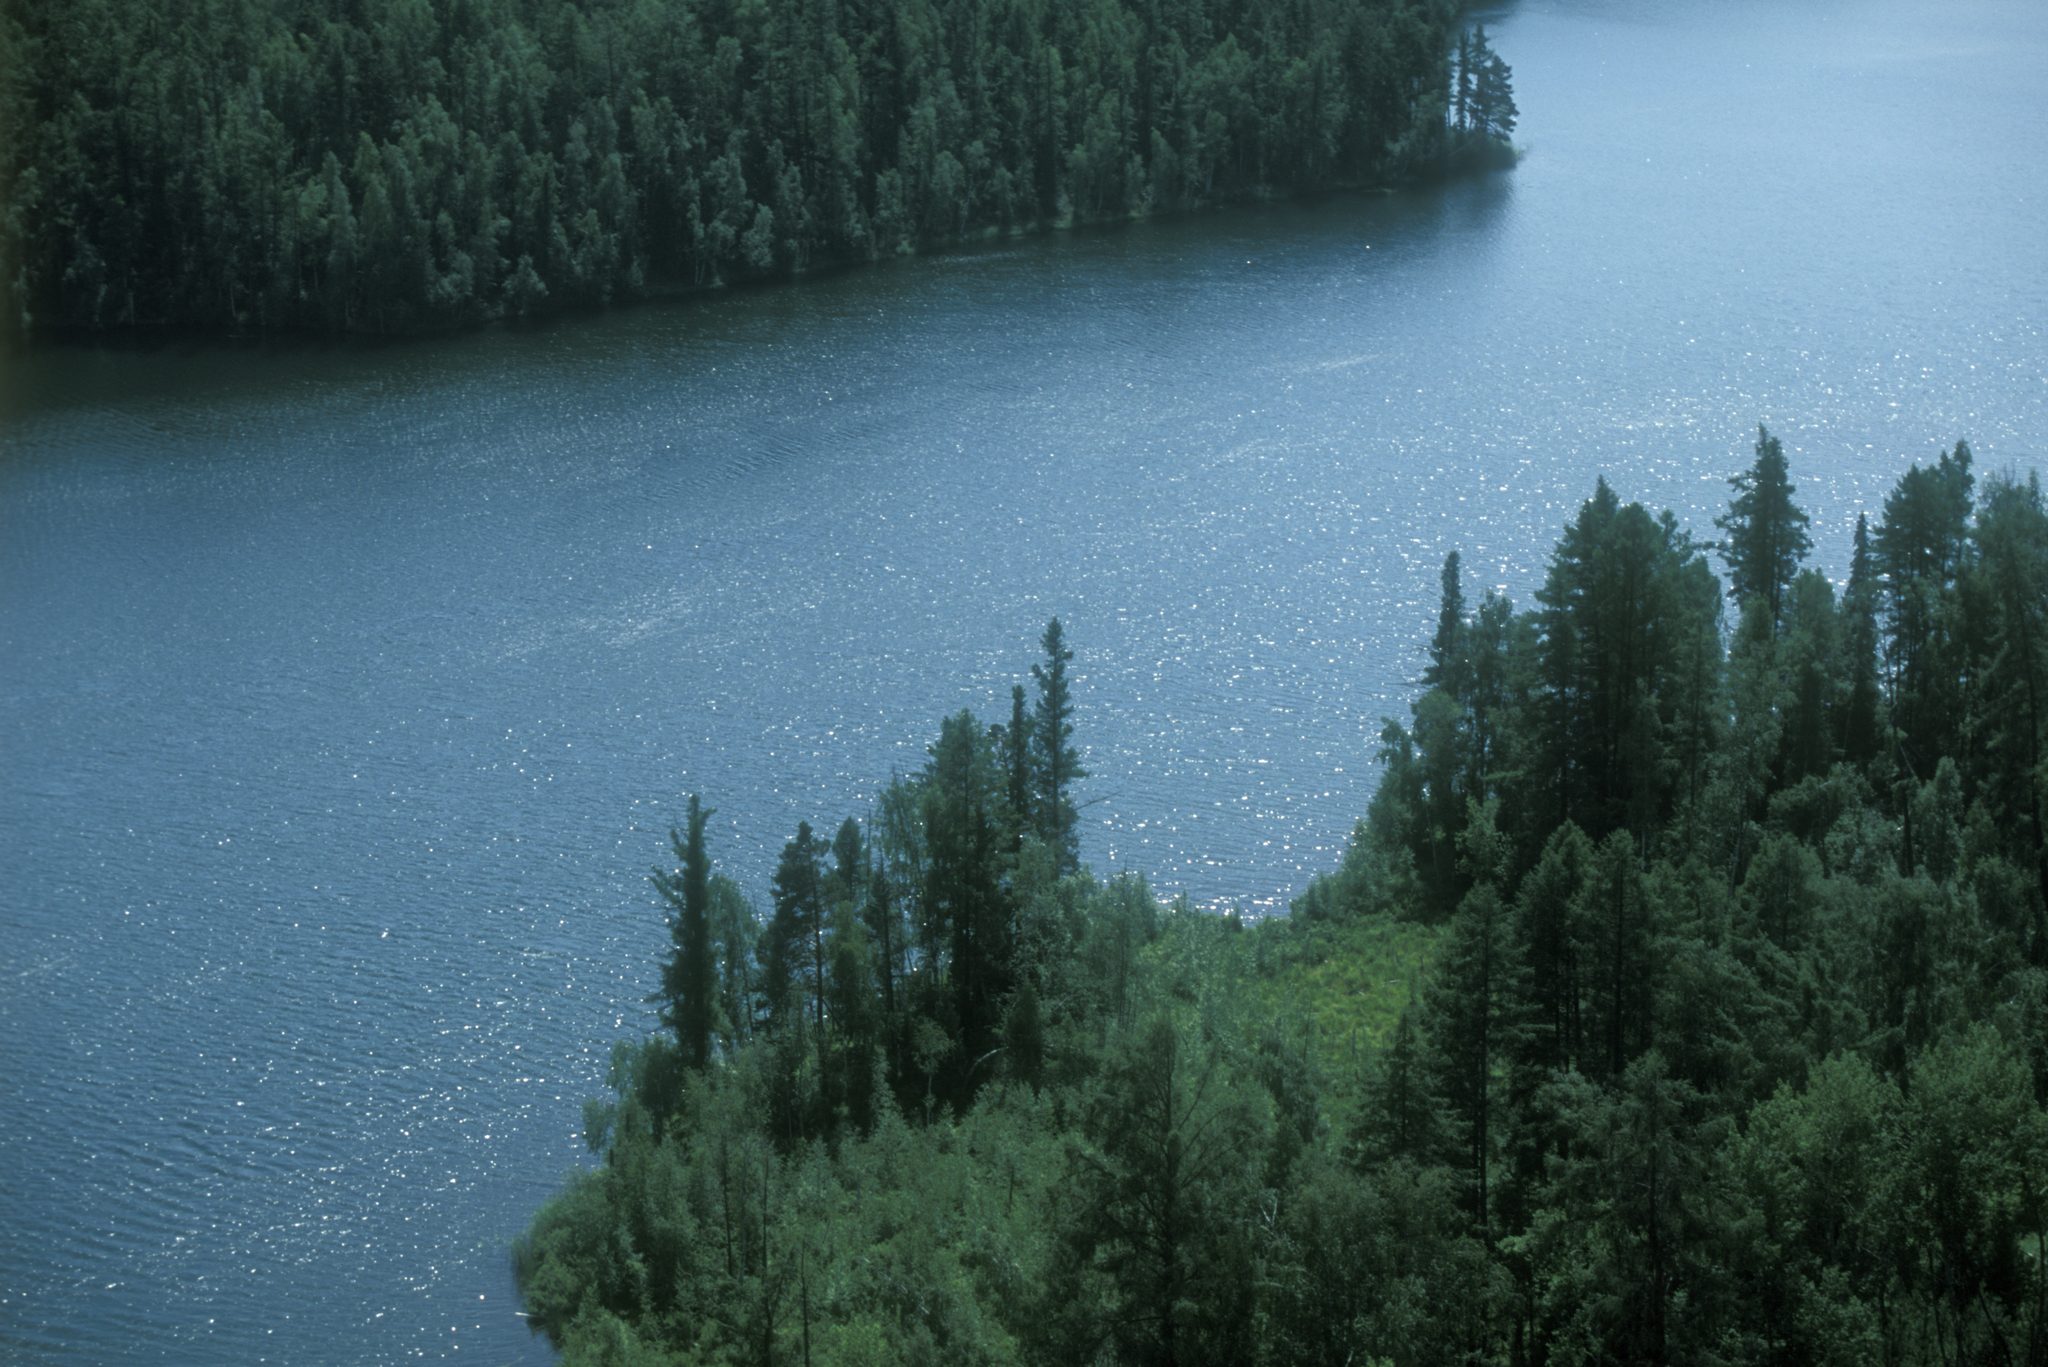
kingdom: Plantae
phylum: Tracheophyta
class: Pinopsida
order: Pinales
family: Pinaceae
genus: Picea
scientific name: Picea obovata
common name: Siberian spruce
